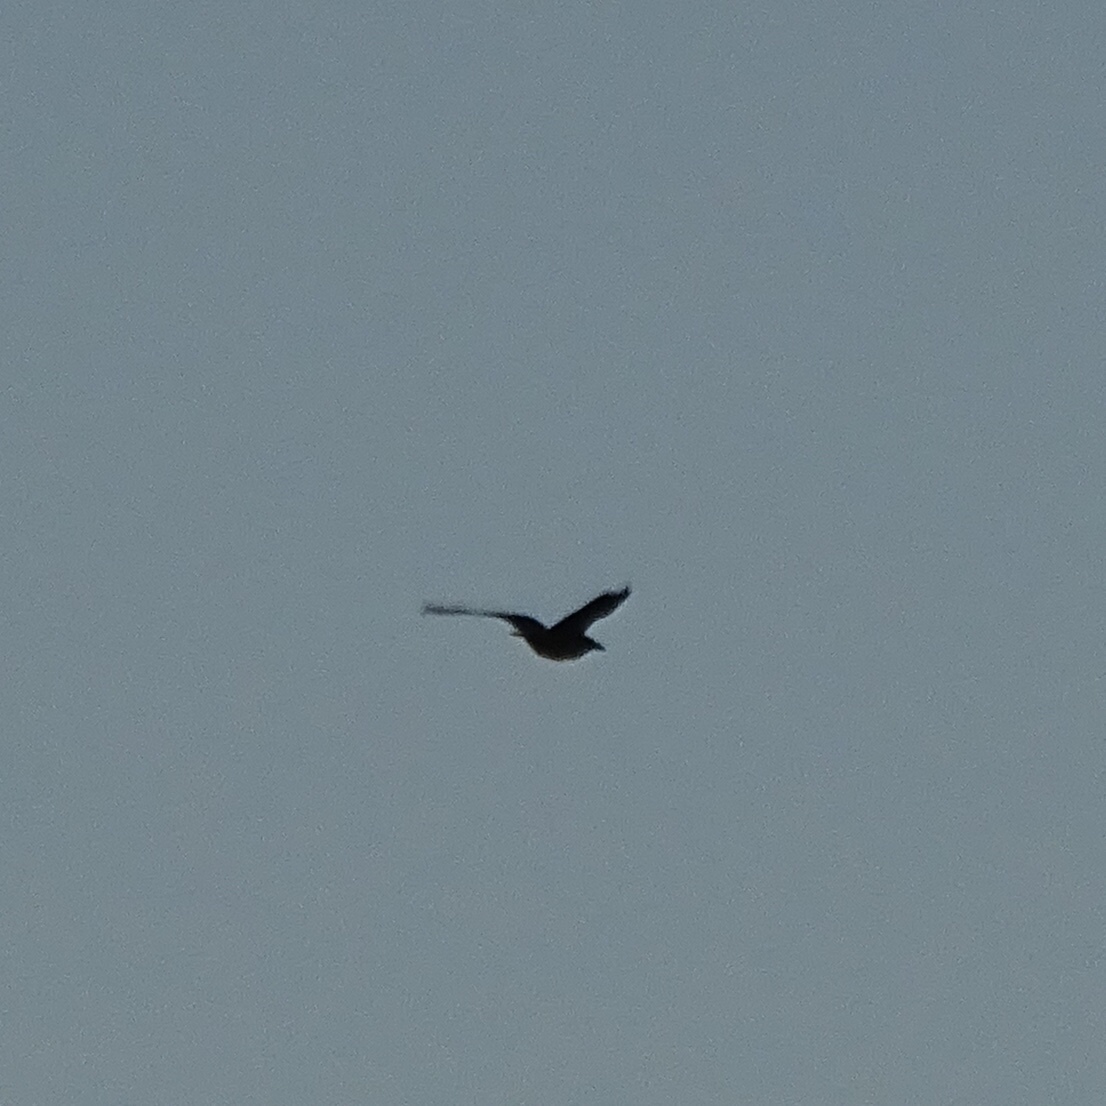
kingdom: Animalia
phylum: Chordata
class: Aves
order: Passeriformes
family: Corvidae
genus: Corvus
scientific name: Corvus corax
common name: Common raven
